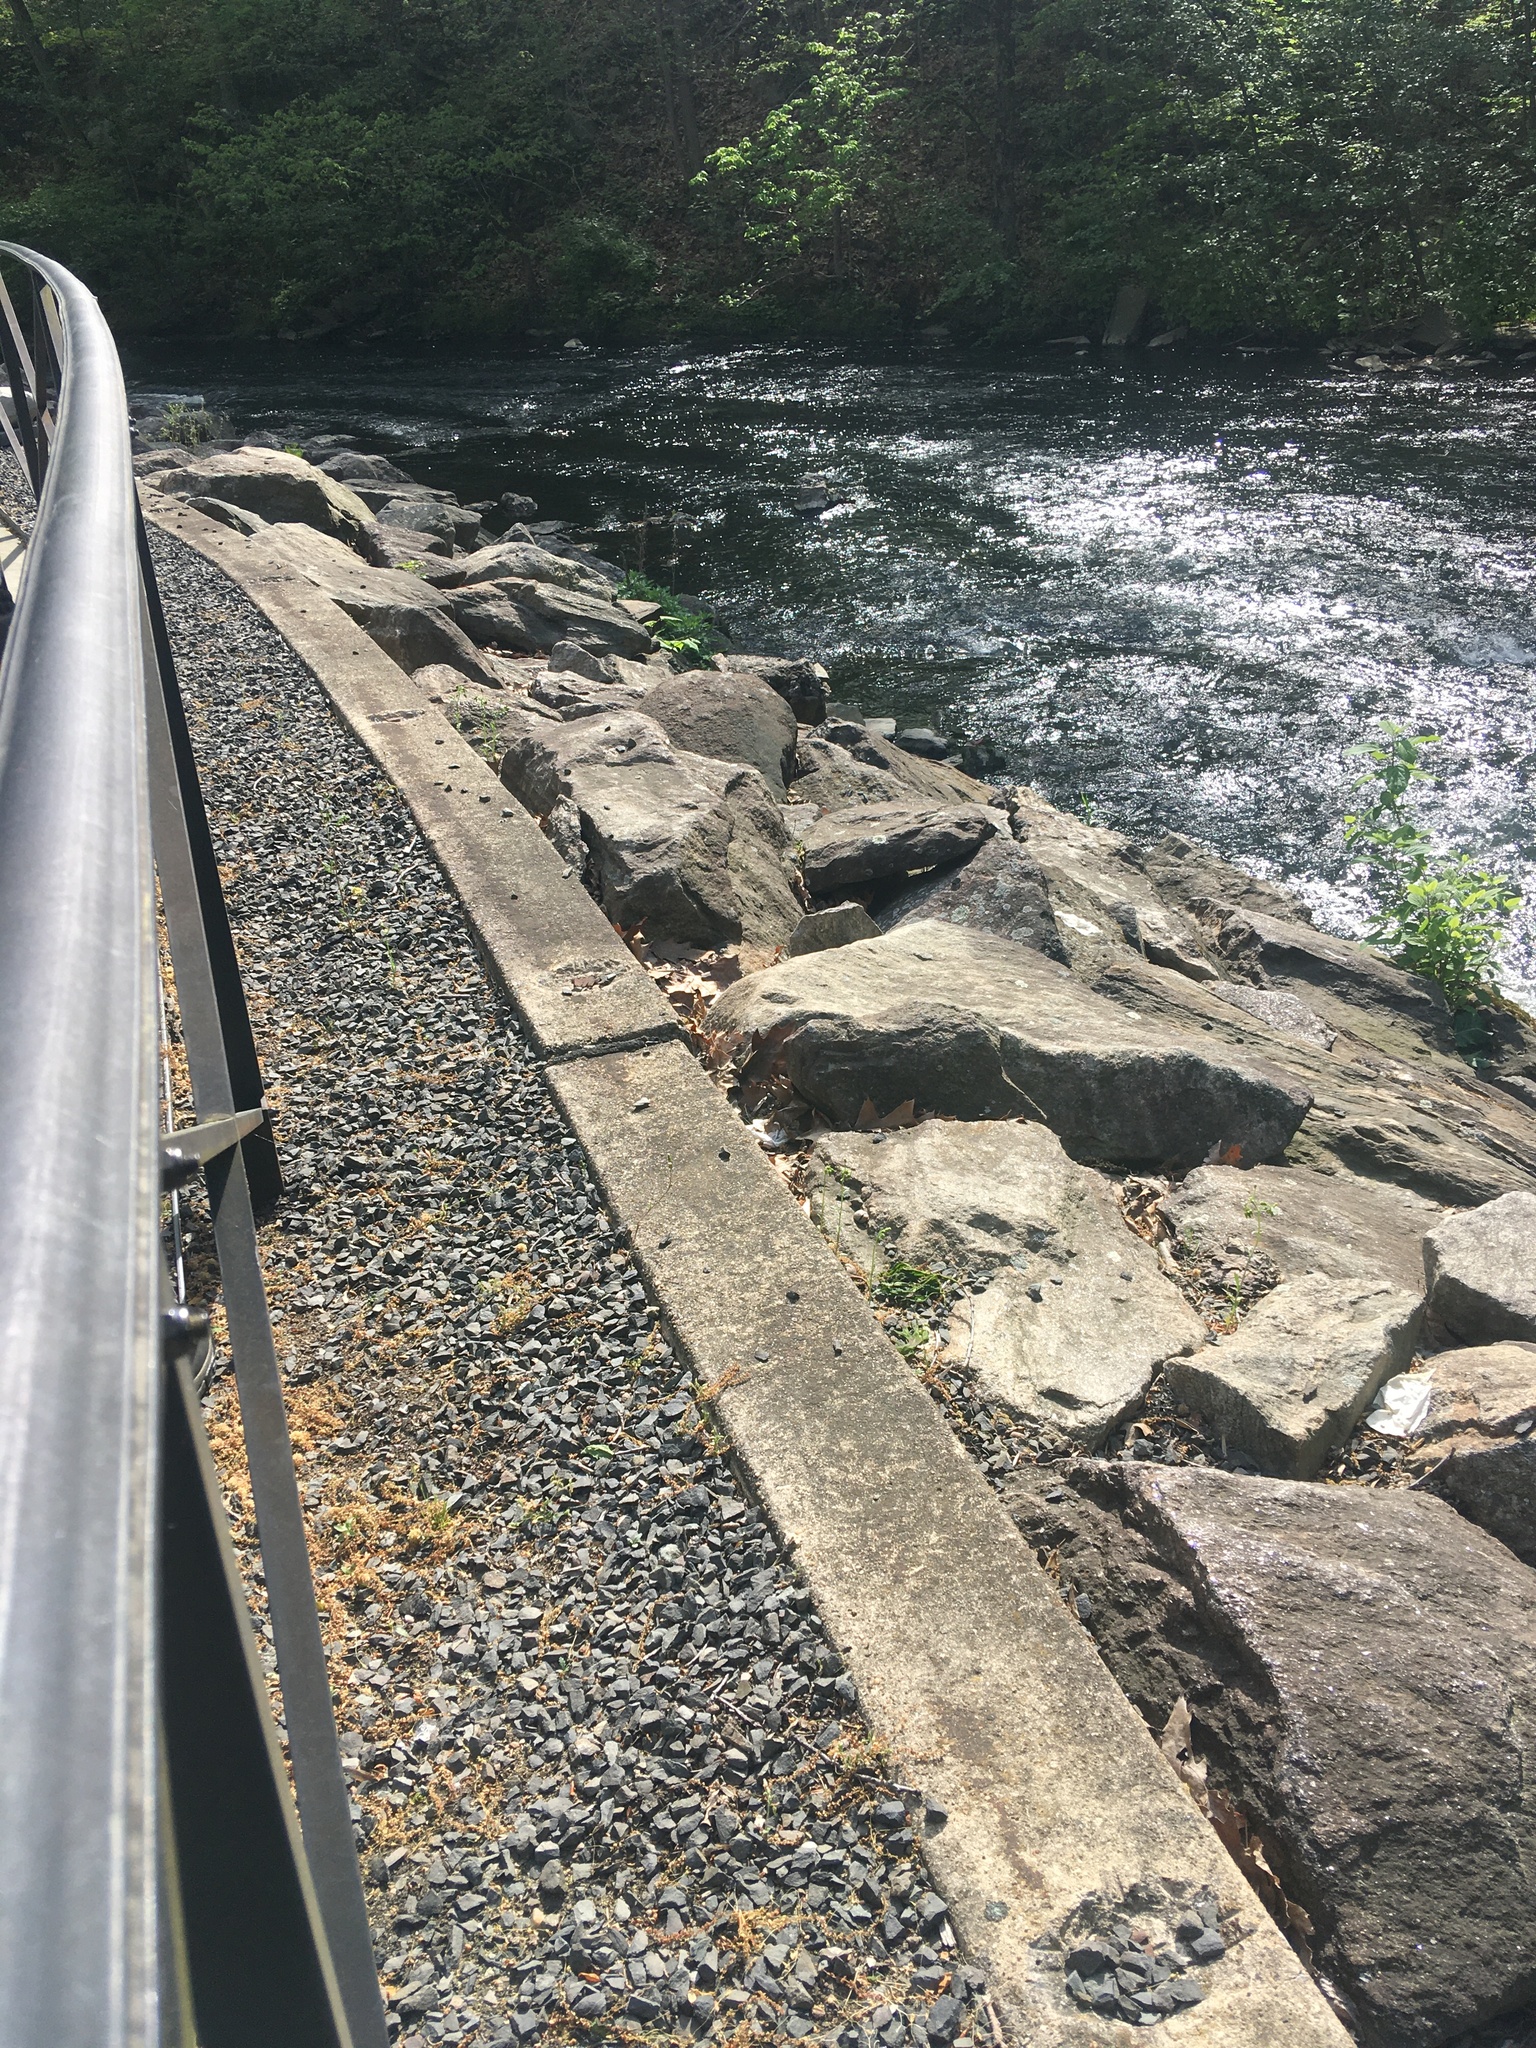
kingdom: Plantae
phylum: Tracheophyta
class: Magnoliopsida
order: Caryophyllales
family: Caryophyllaceae
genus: Stellaria
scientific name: Stellaria media
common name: Common chickweed
